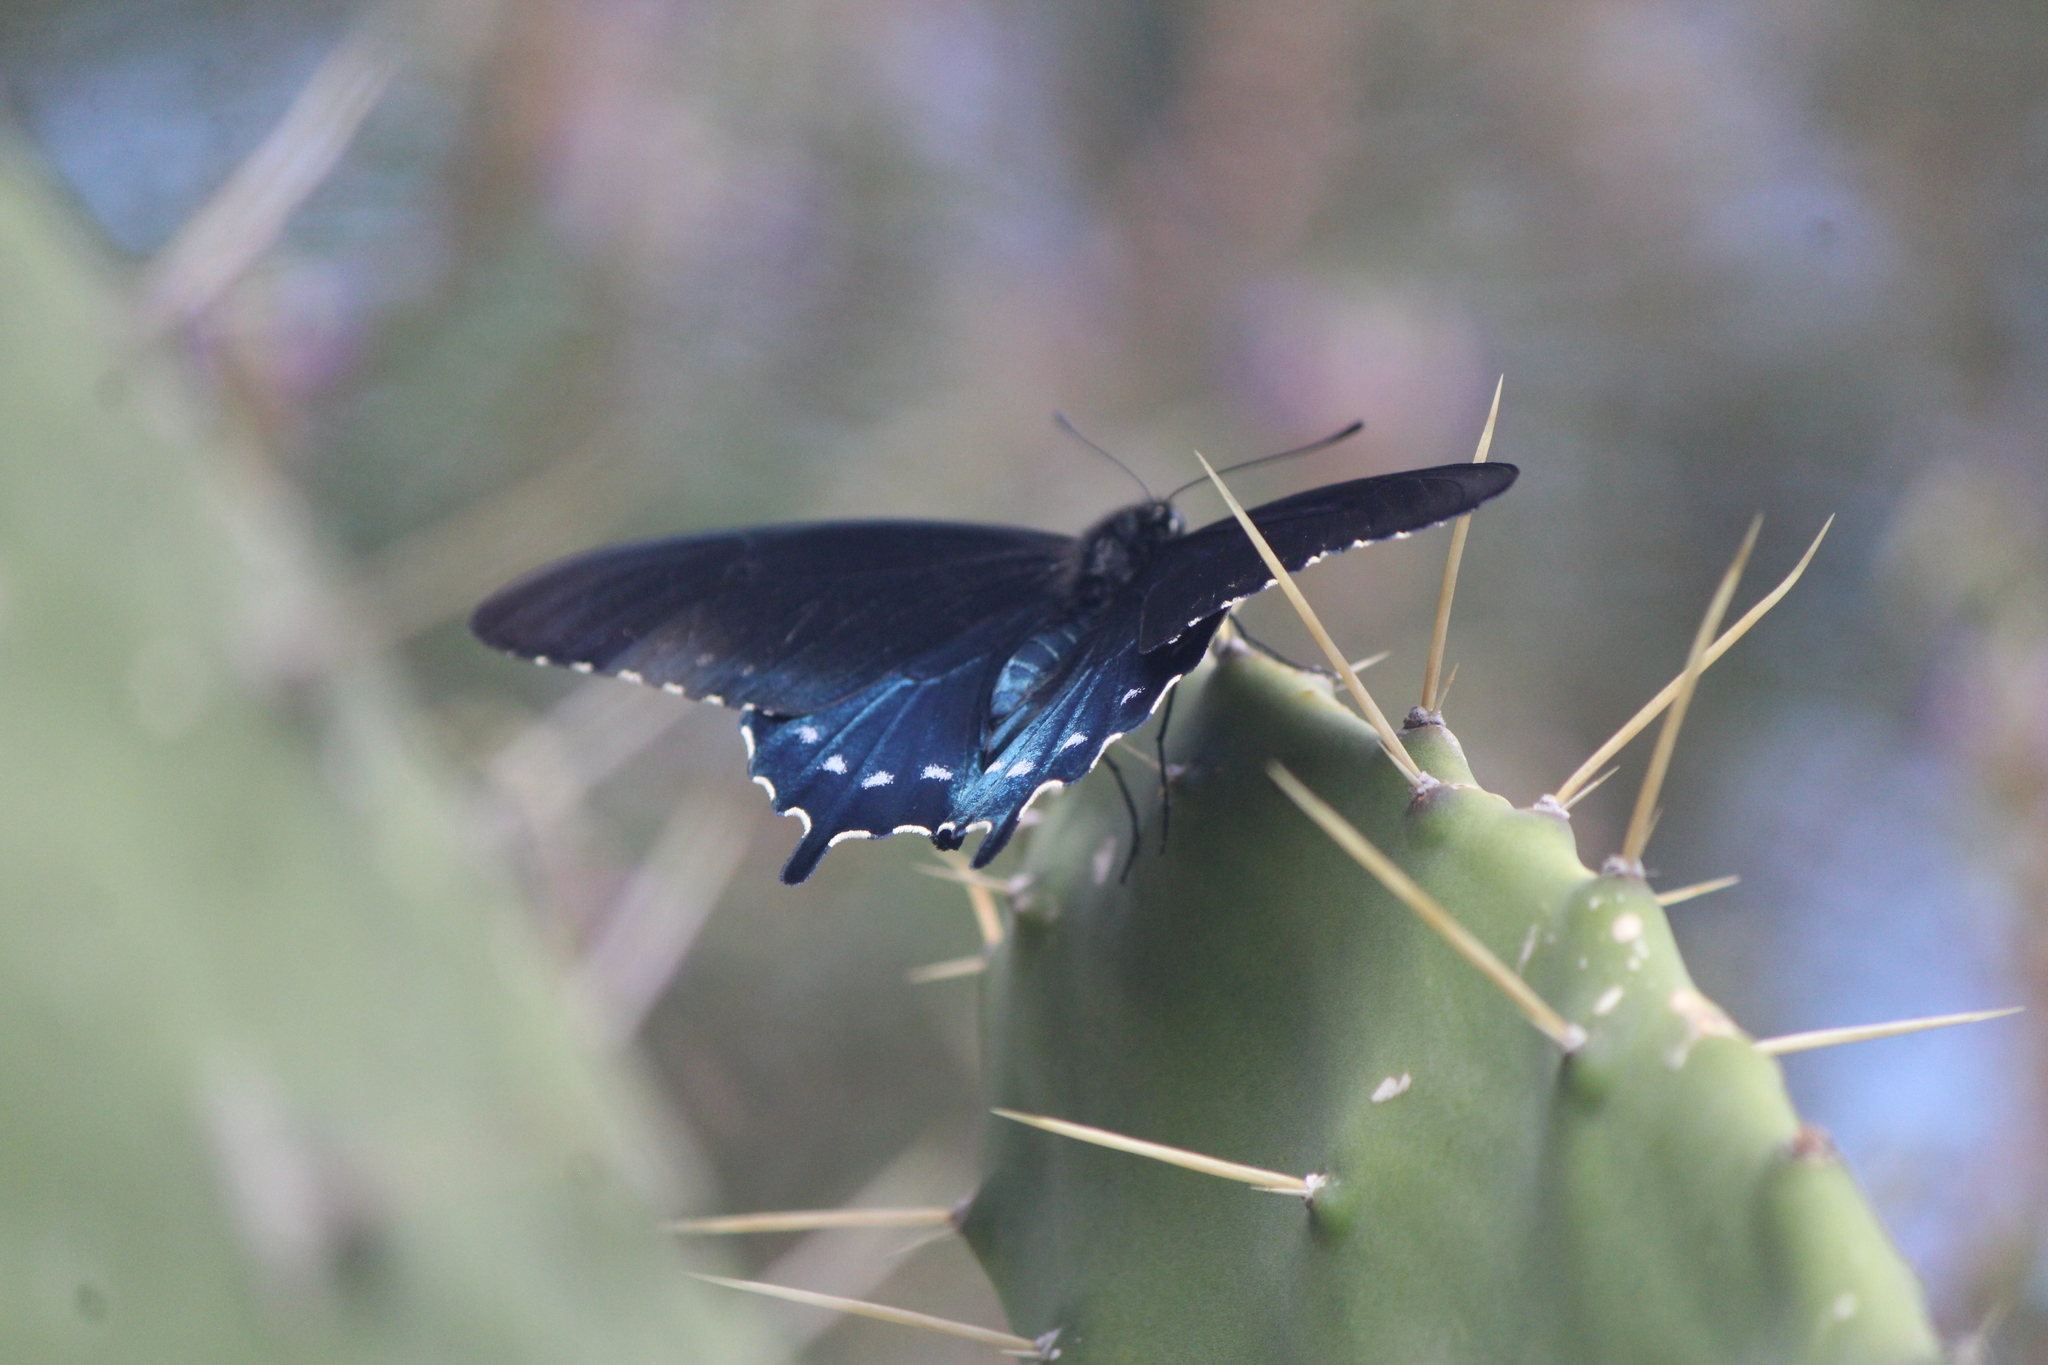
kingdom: Animalia
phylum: Arthropoda
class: Insecta
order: Lepidoptera
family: Papilionidae
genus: Battus
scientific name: Battus philenor
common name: Pipevine swallowtail
